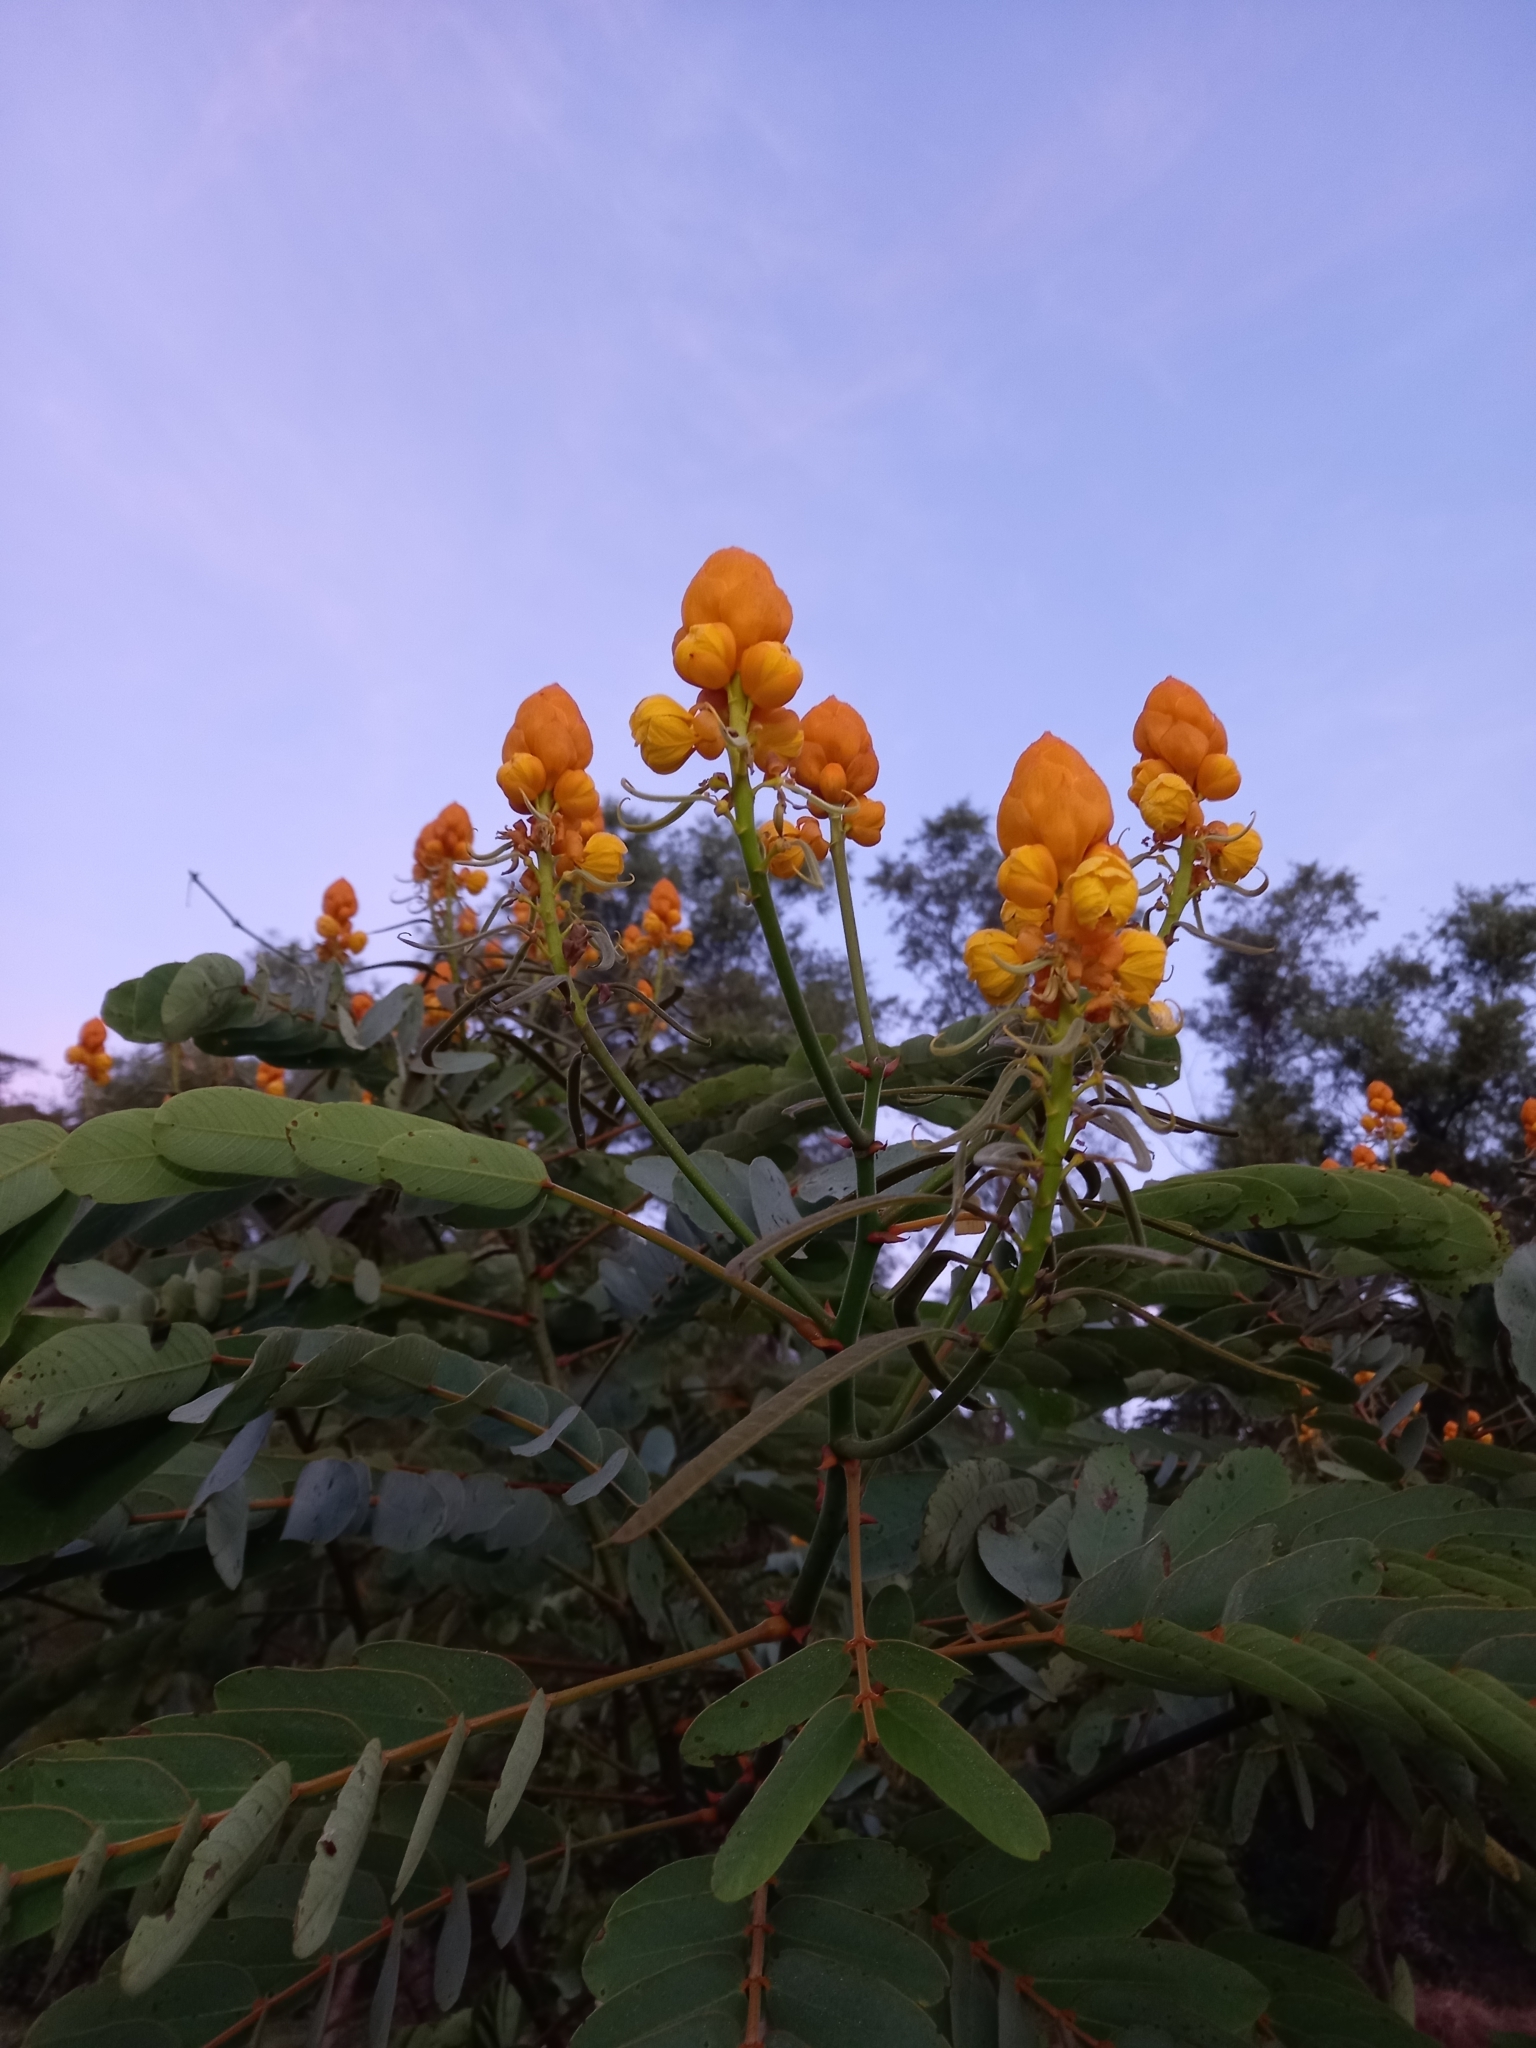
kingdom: Plantae
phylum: Tracheophyta
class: Magnoliopsida
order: Fabales
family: Fabaceae
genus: Senna
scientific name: Senna reticulata
